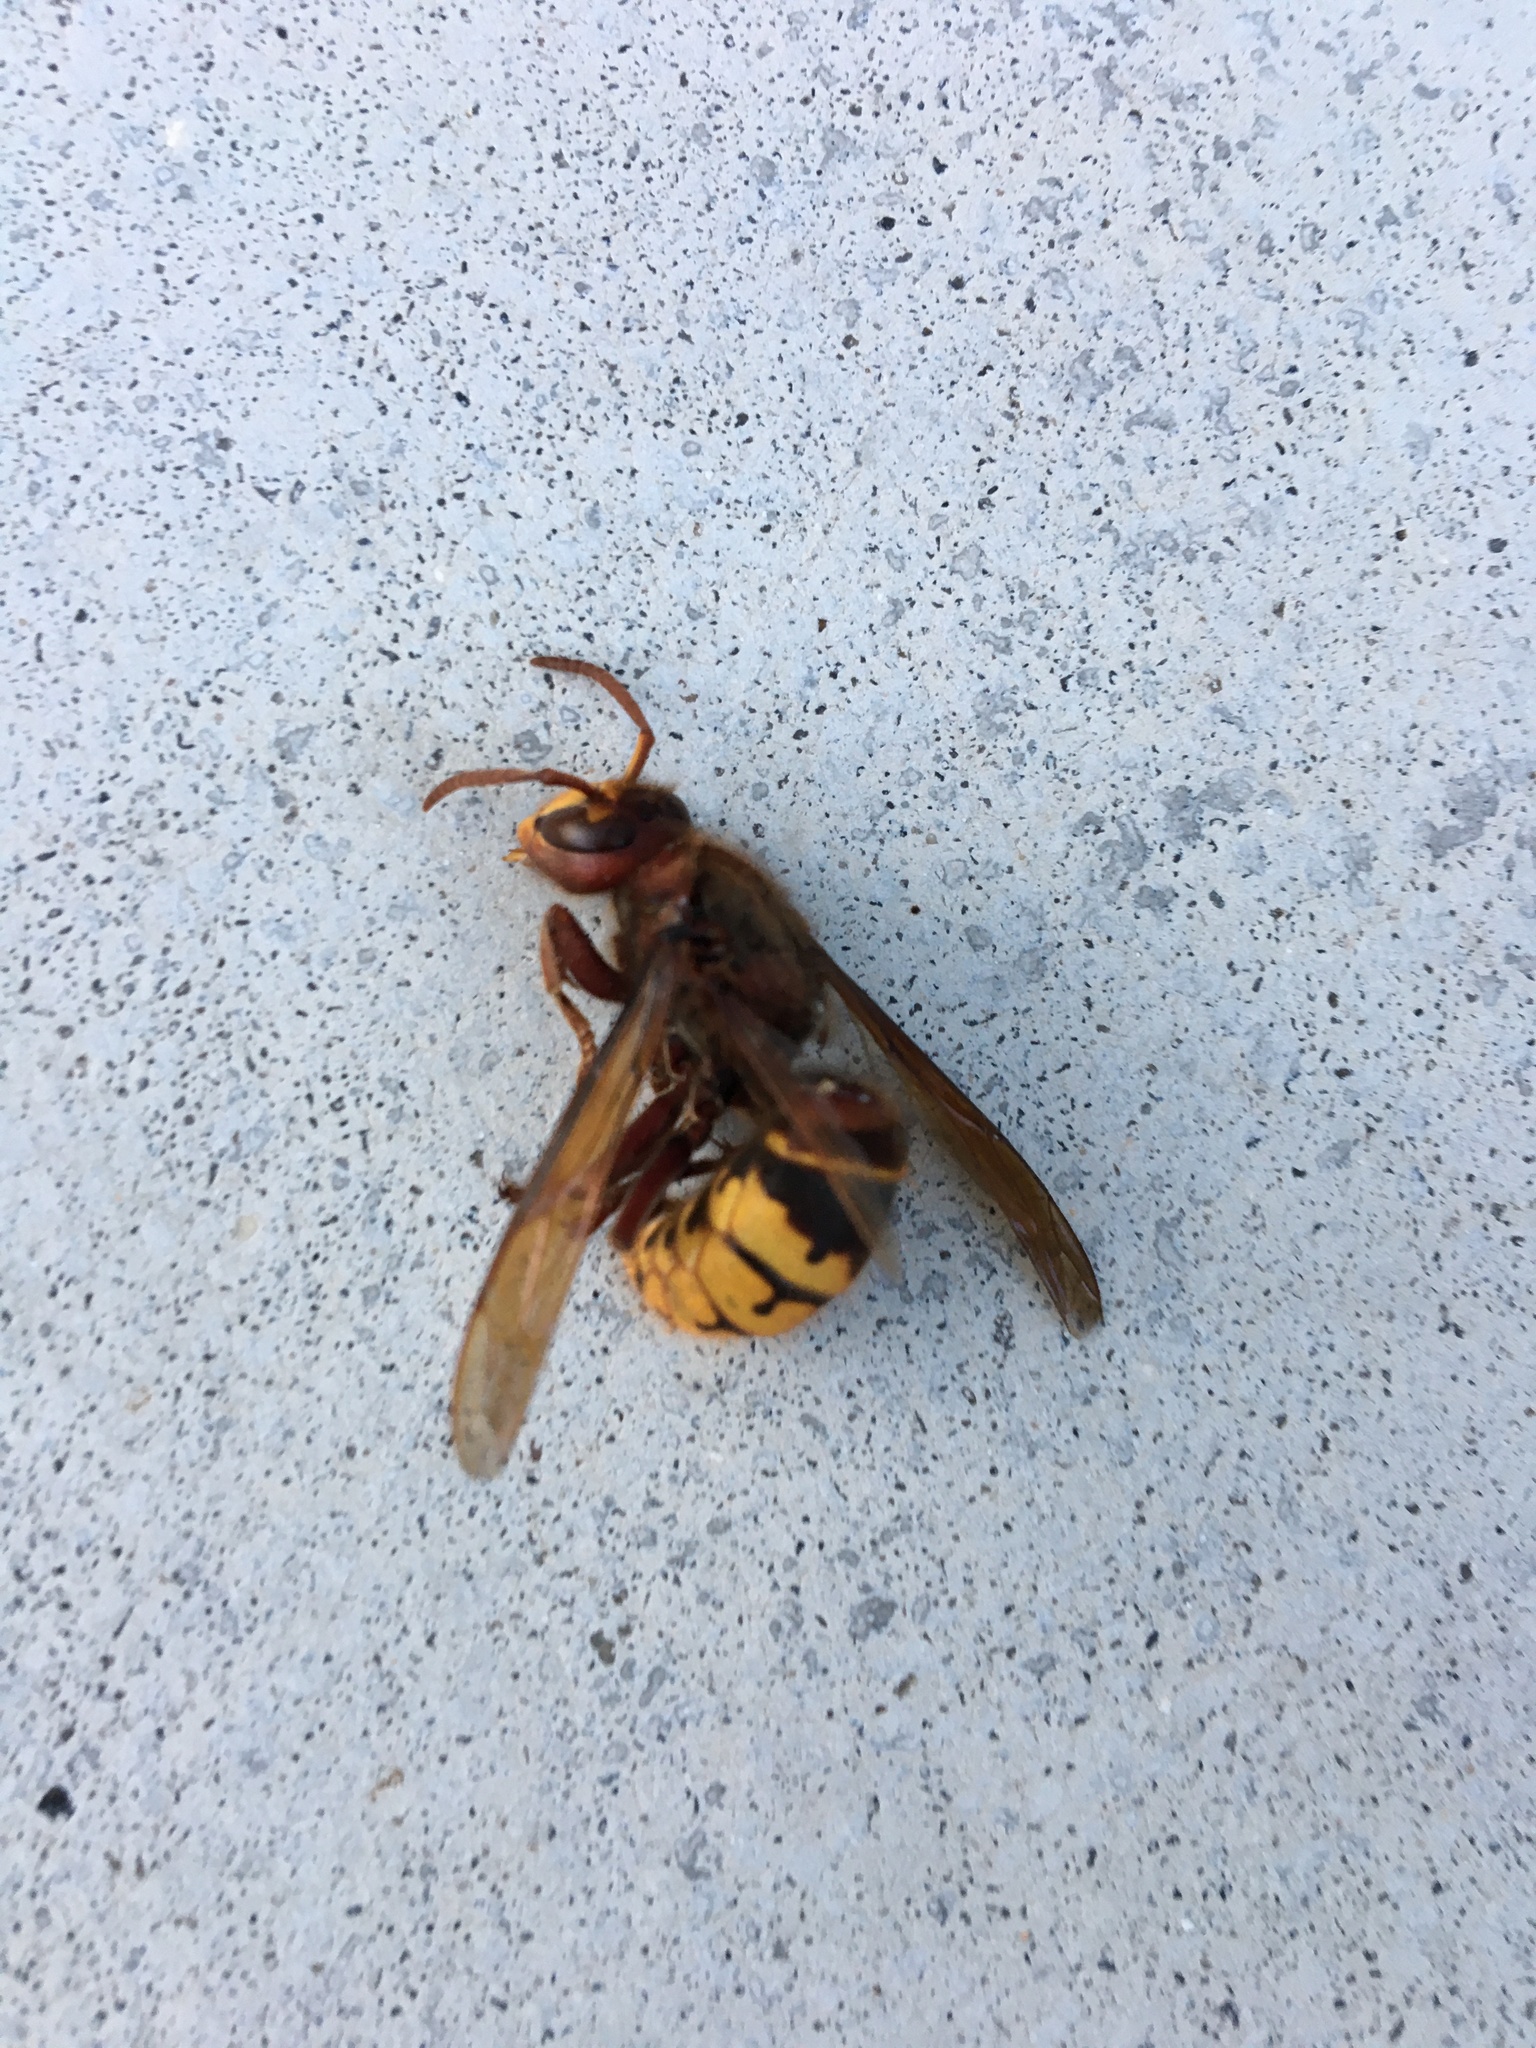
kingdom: Animalia
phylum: Arthropoda
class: Insecta
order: Hymenoptera
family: Vespidae
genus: Vespa
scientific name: Vespa crabro
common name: Hornet
